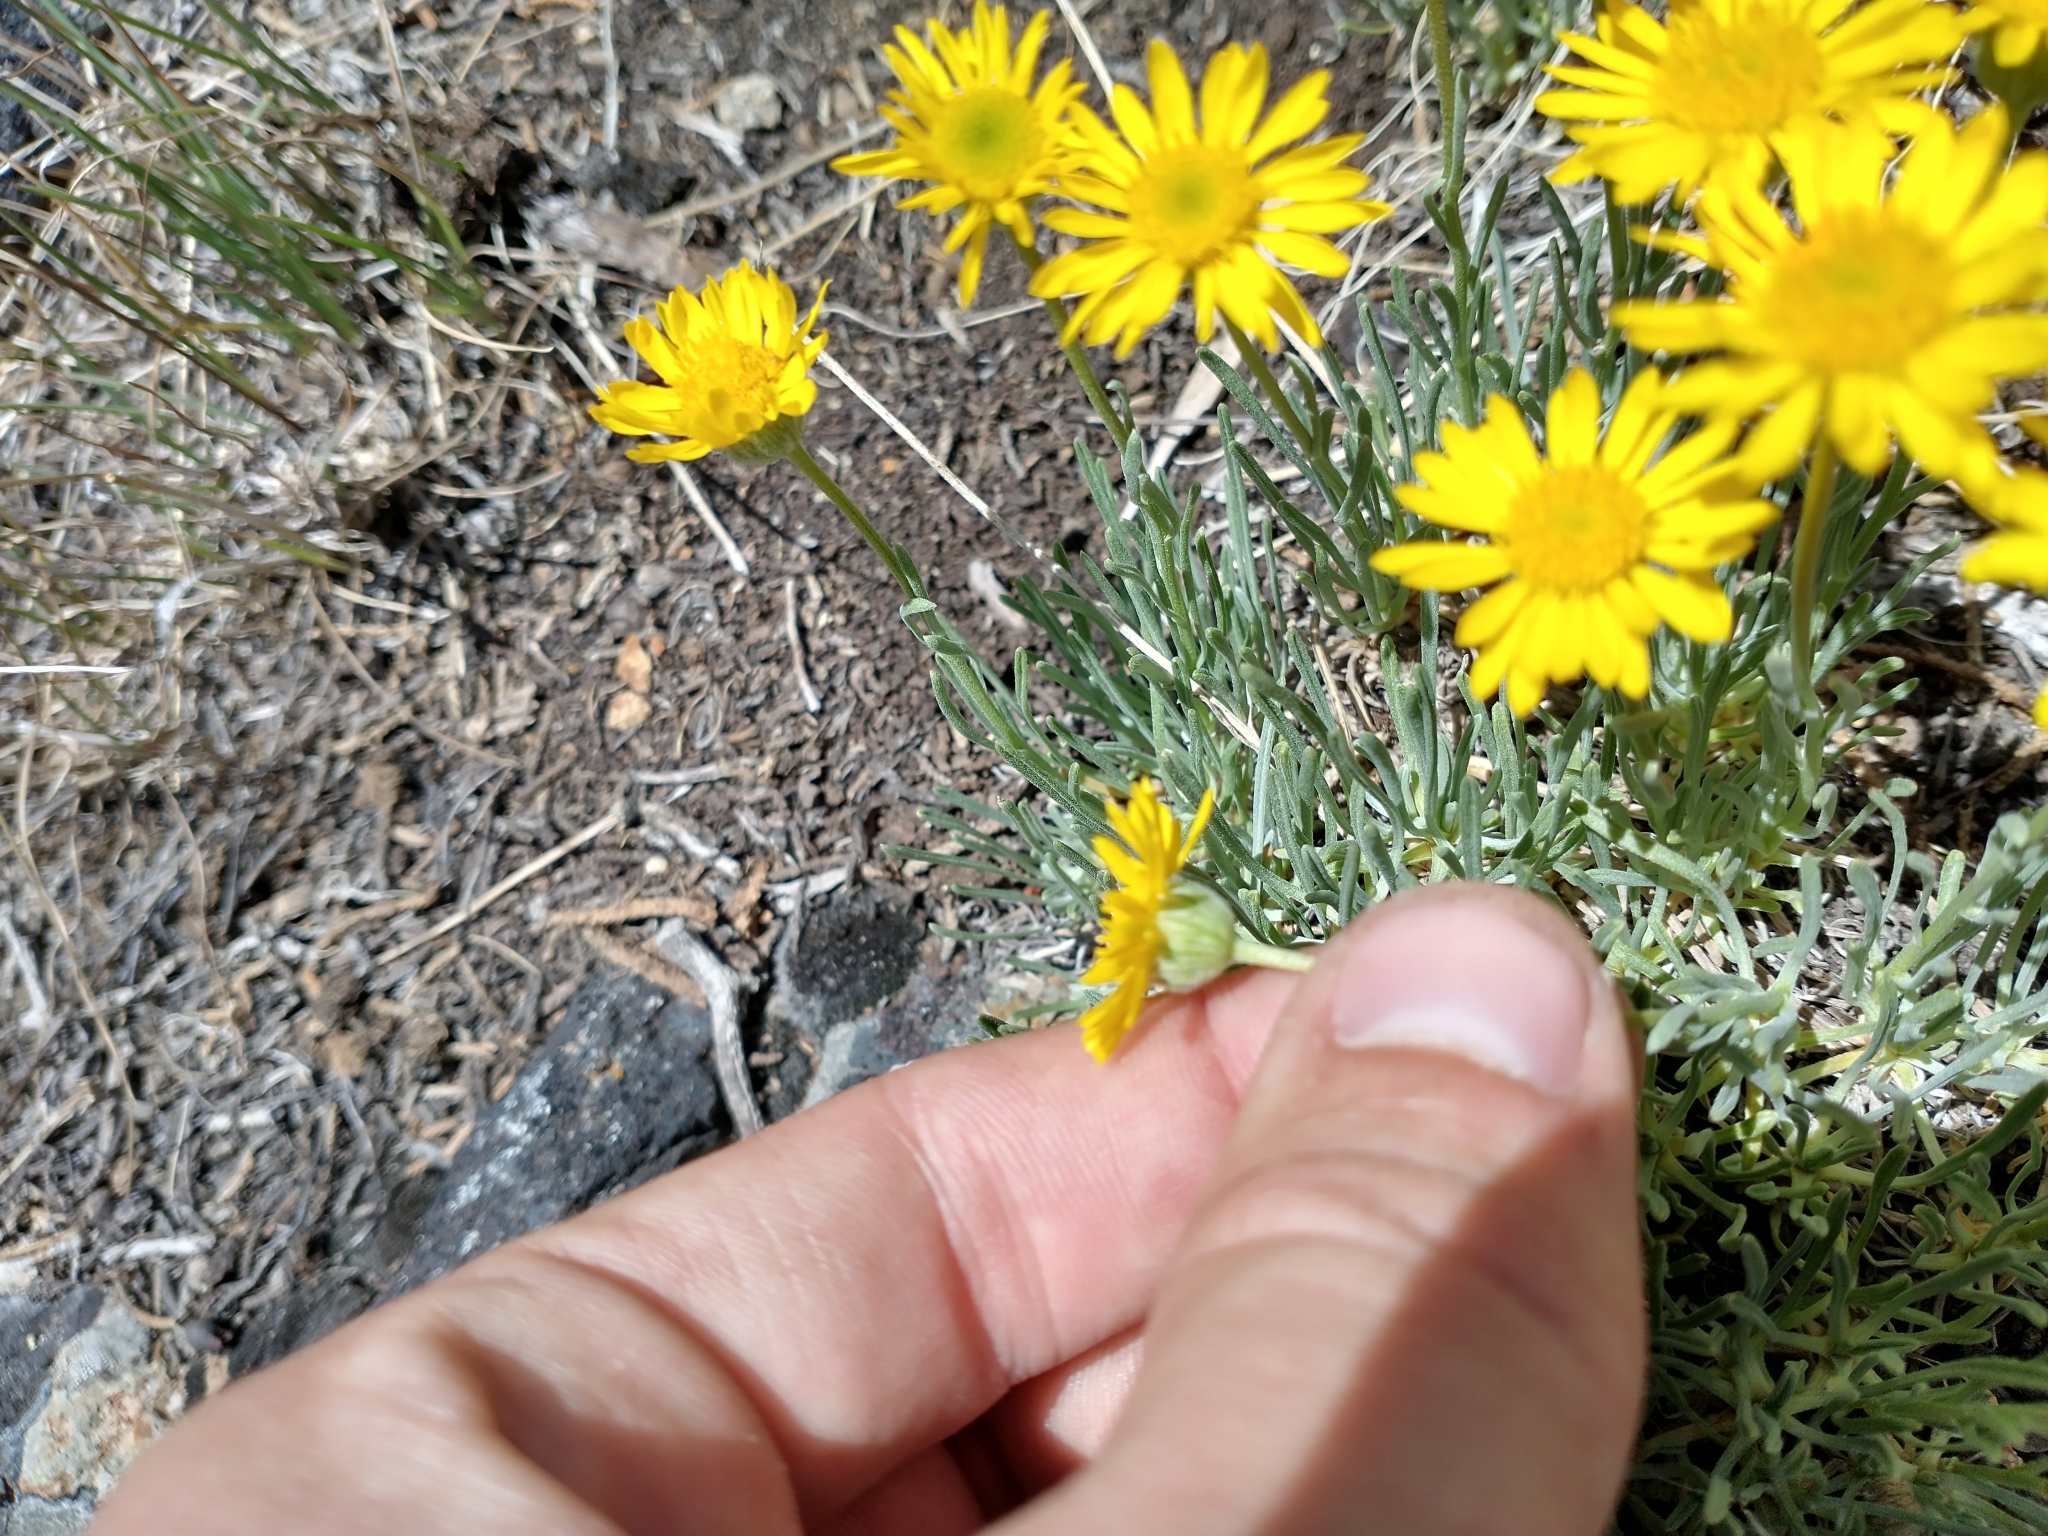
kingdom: Plantae
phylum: Tracheophyta
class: Magnoliopsida
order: Asterales
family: Asteraceae
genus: Erigeron
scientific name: Erigeron linearis
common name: Desert yellow fleabane
